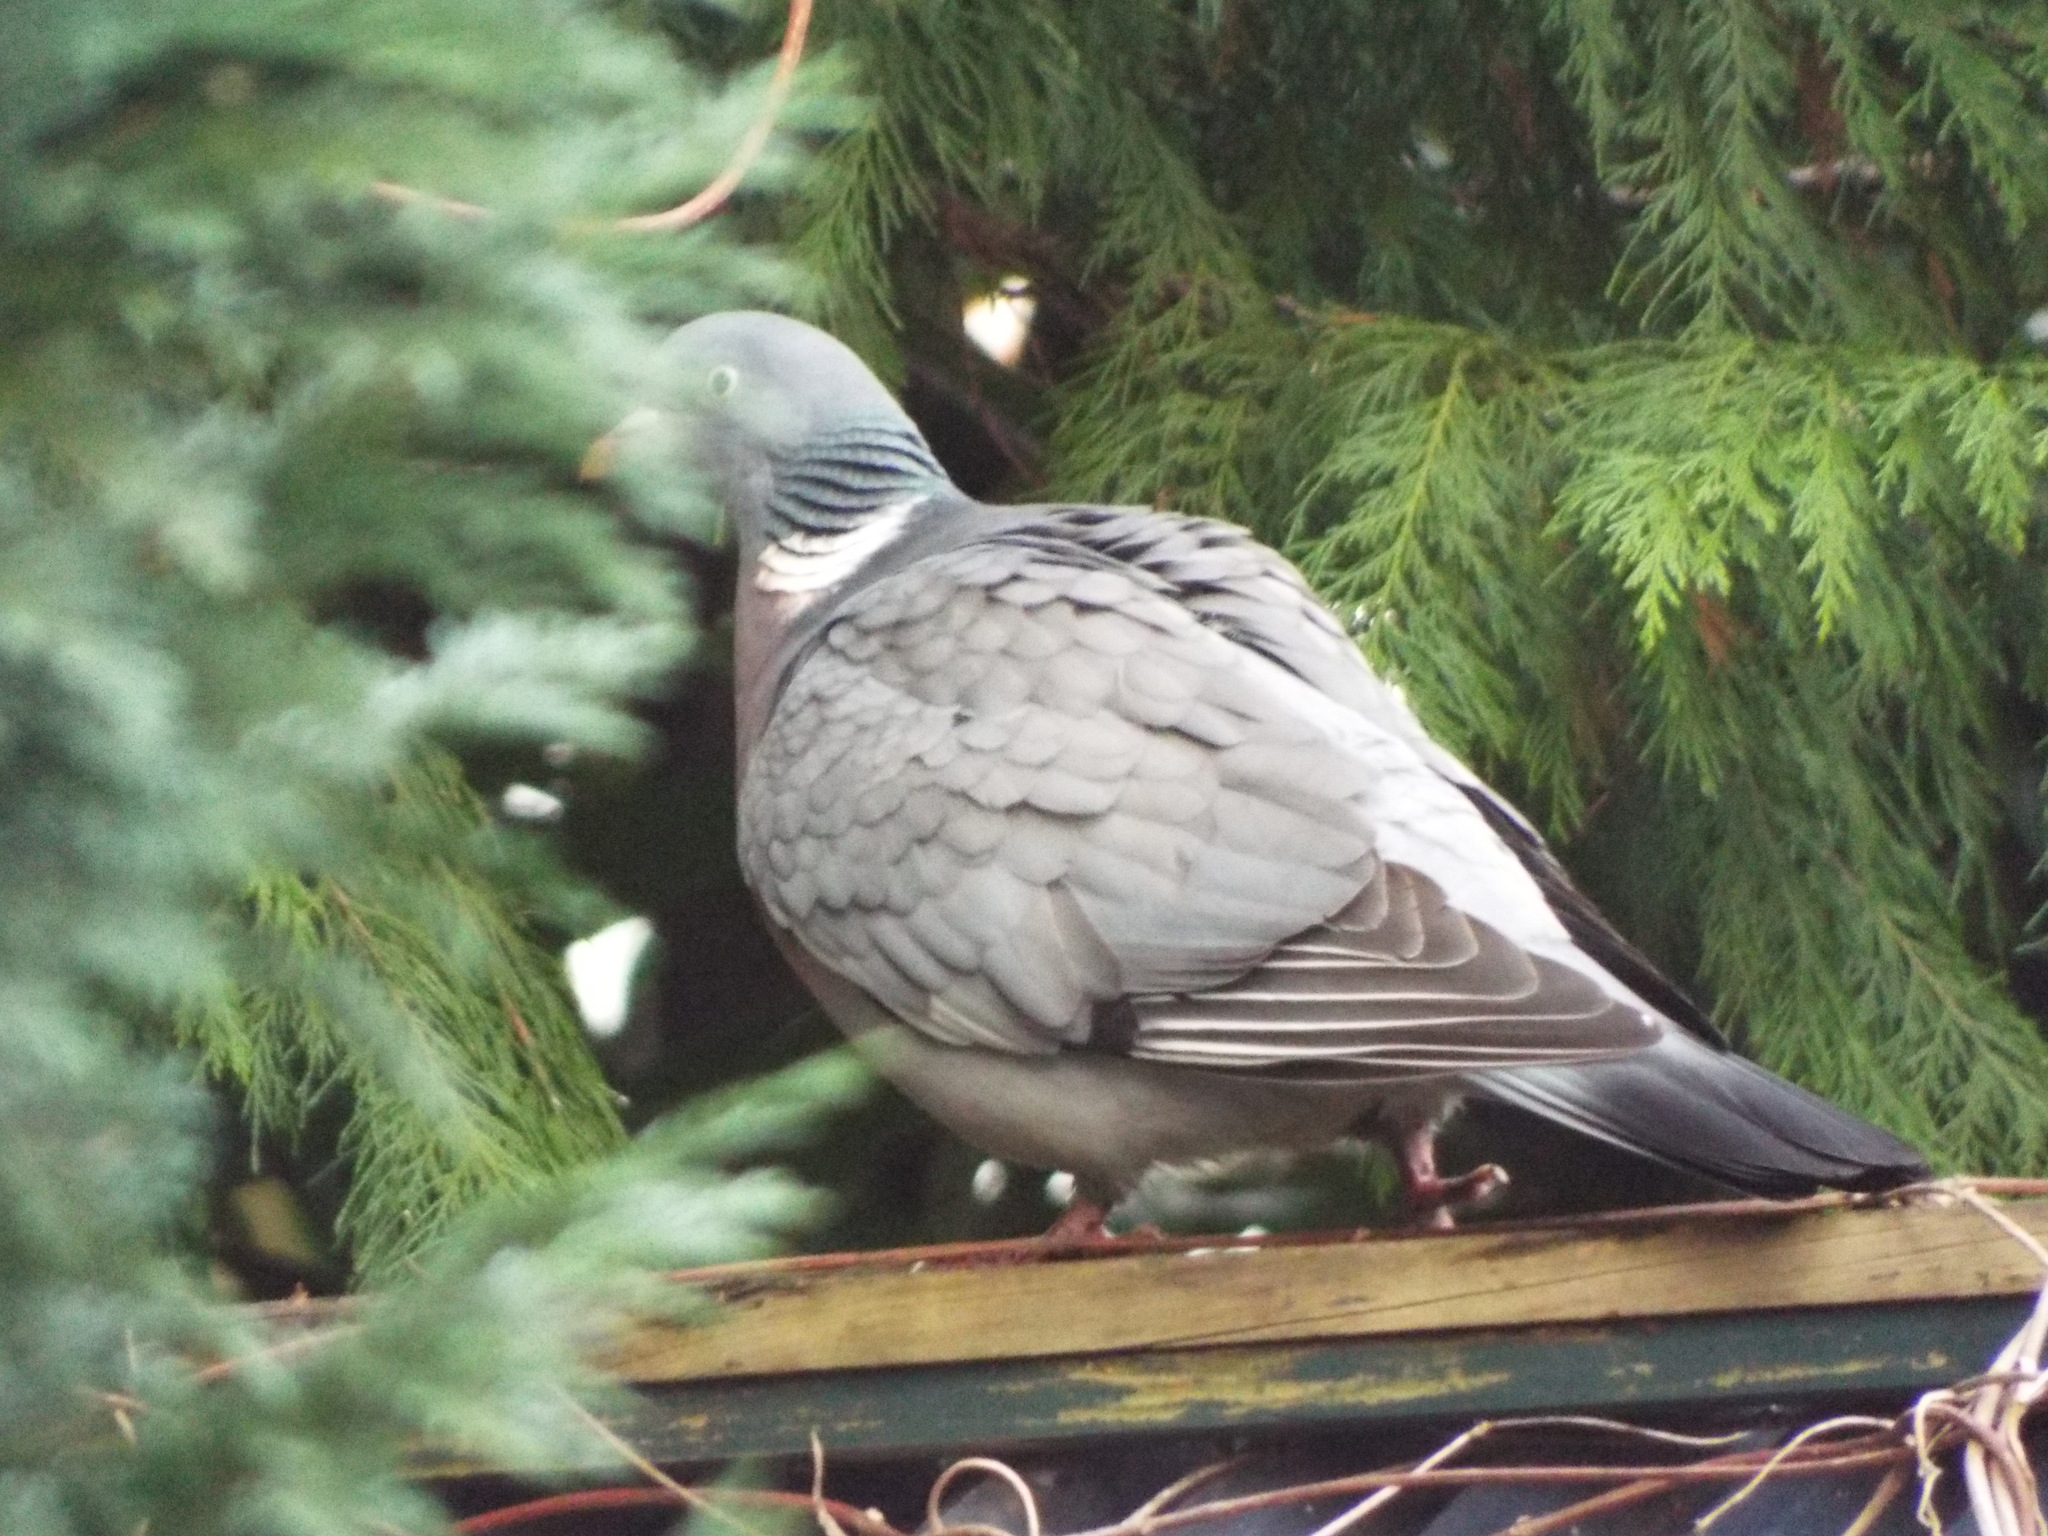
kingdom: Animalia
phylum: Chordata
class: Aves
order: Columbiformes
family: Columbidae
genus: Columba
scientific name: Columba palumbus
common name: Common wood pigeon
